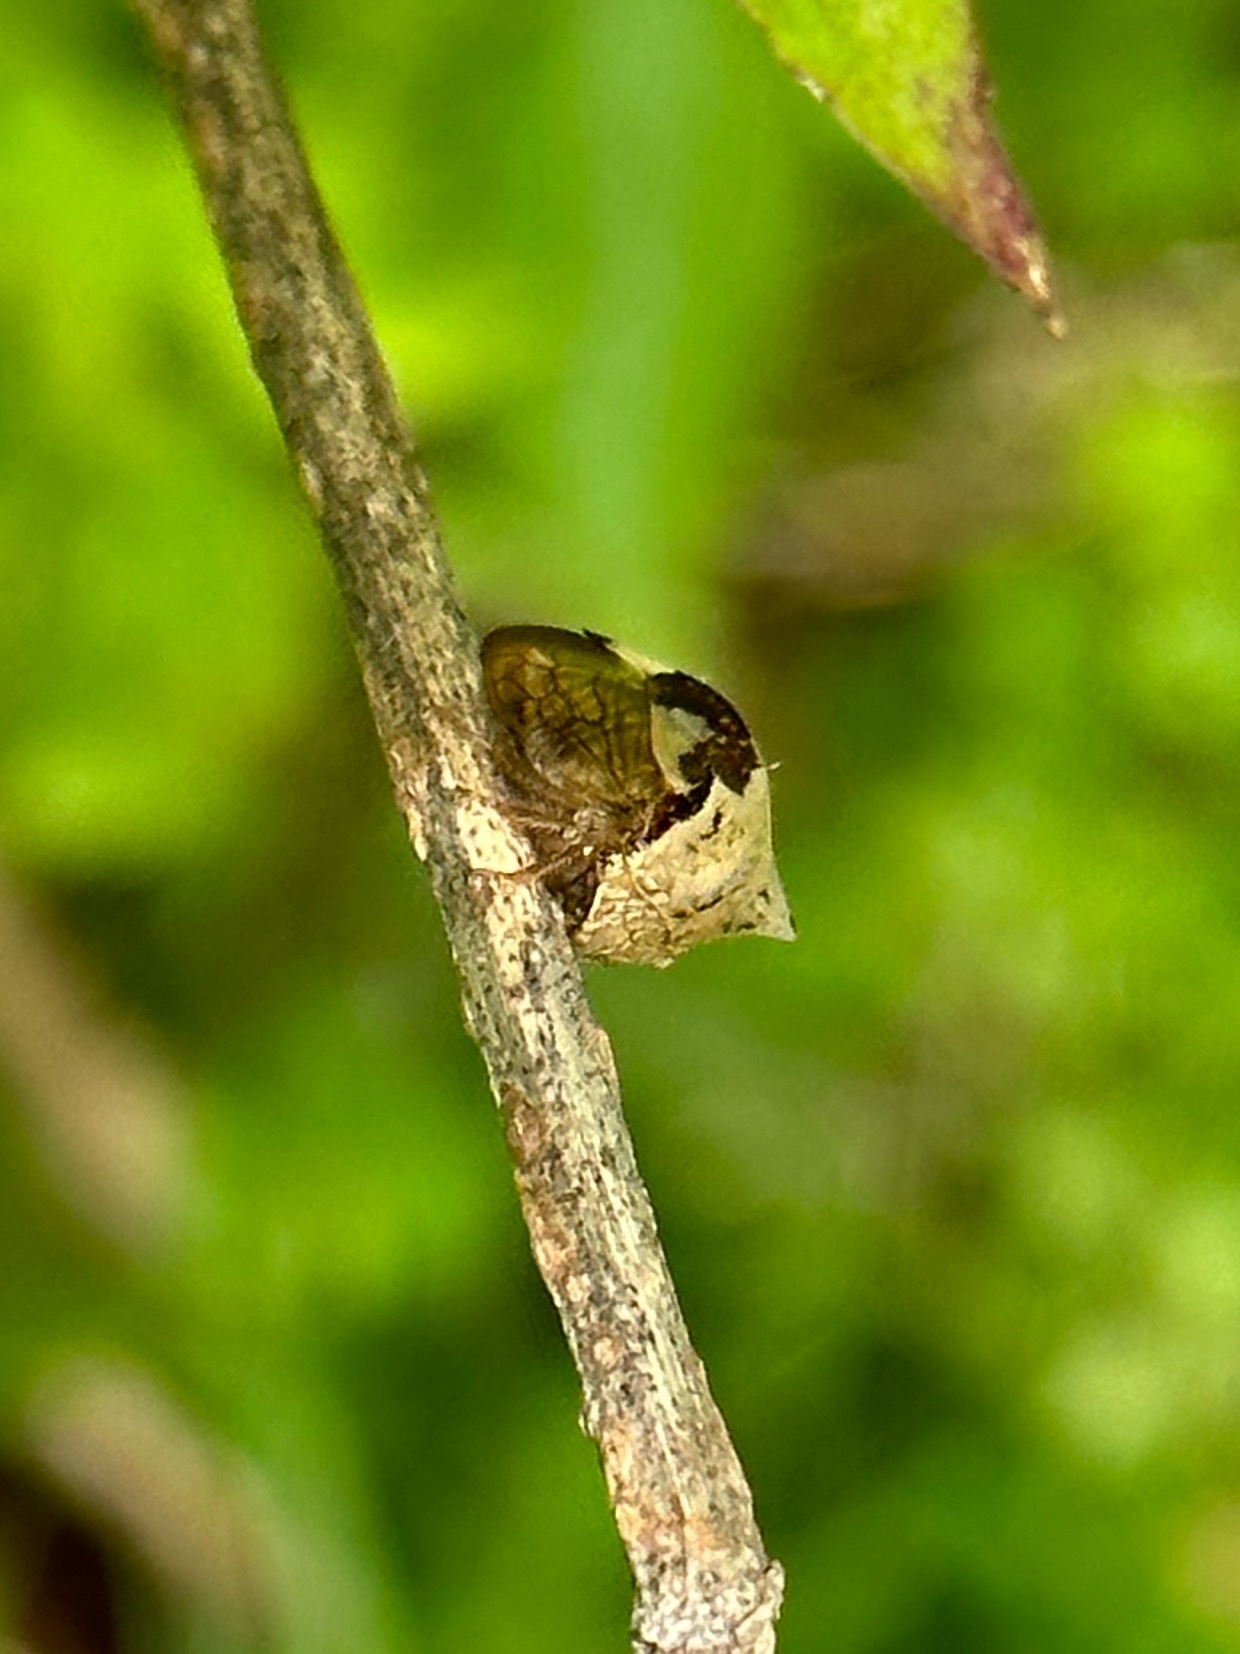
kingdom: Animalia
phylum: Arthropoda
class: Insecta
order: Hemiptera
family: Membracidae
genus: Stictocephala
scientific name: Stictocephala diceros
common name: Two-horned treehopper
